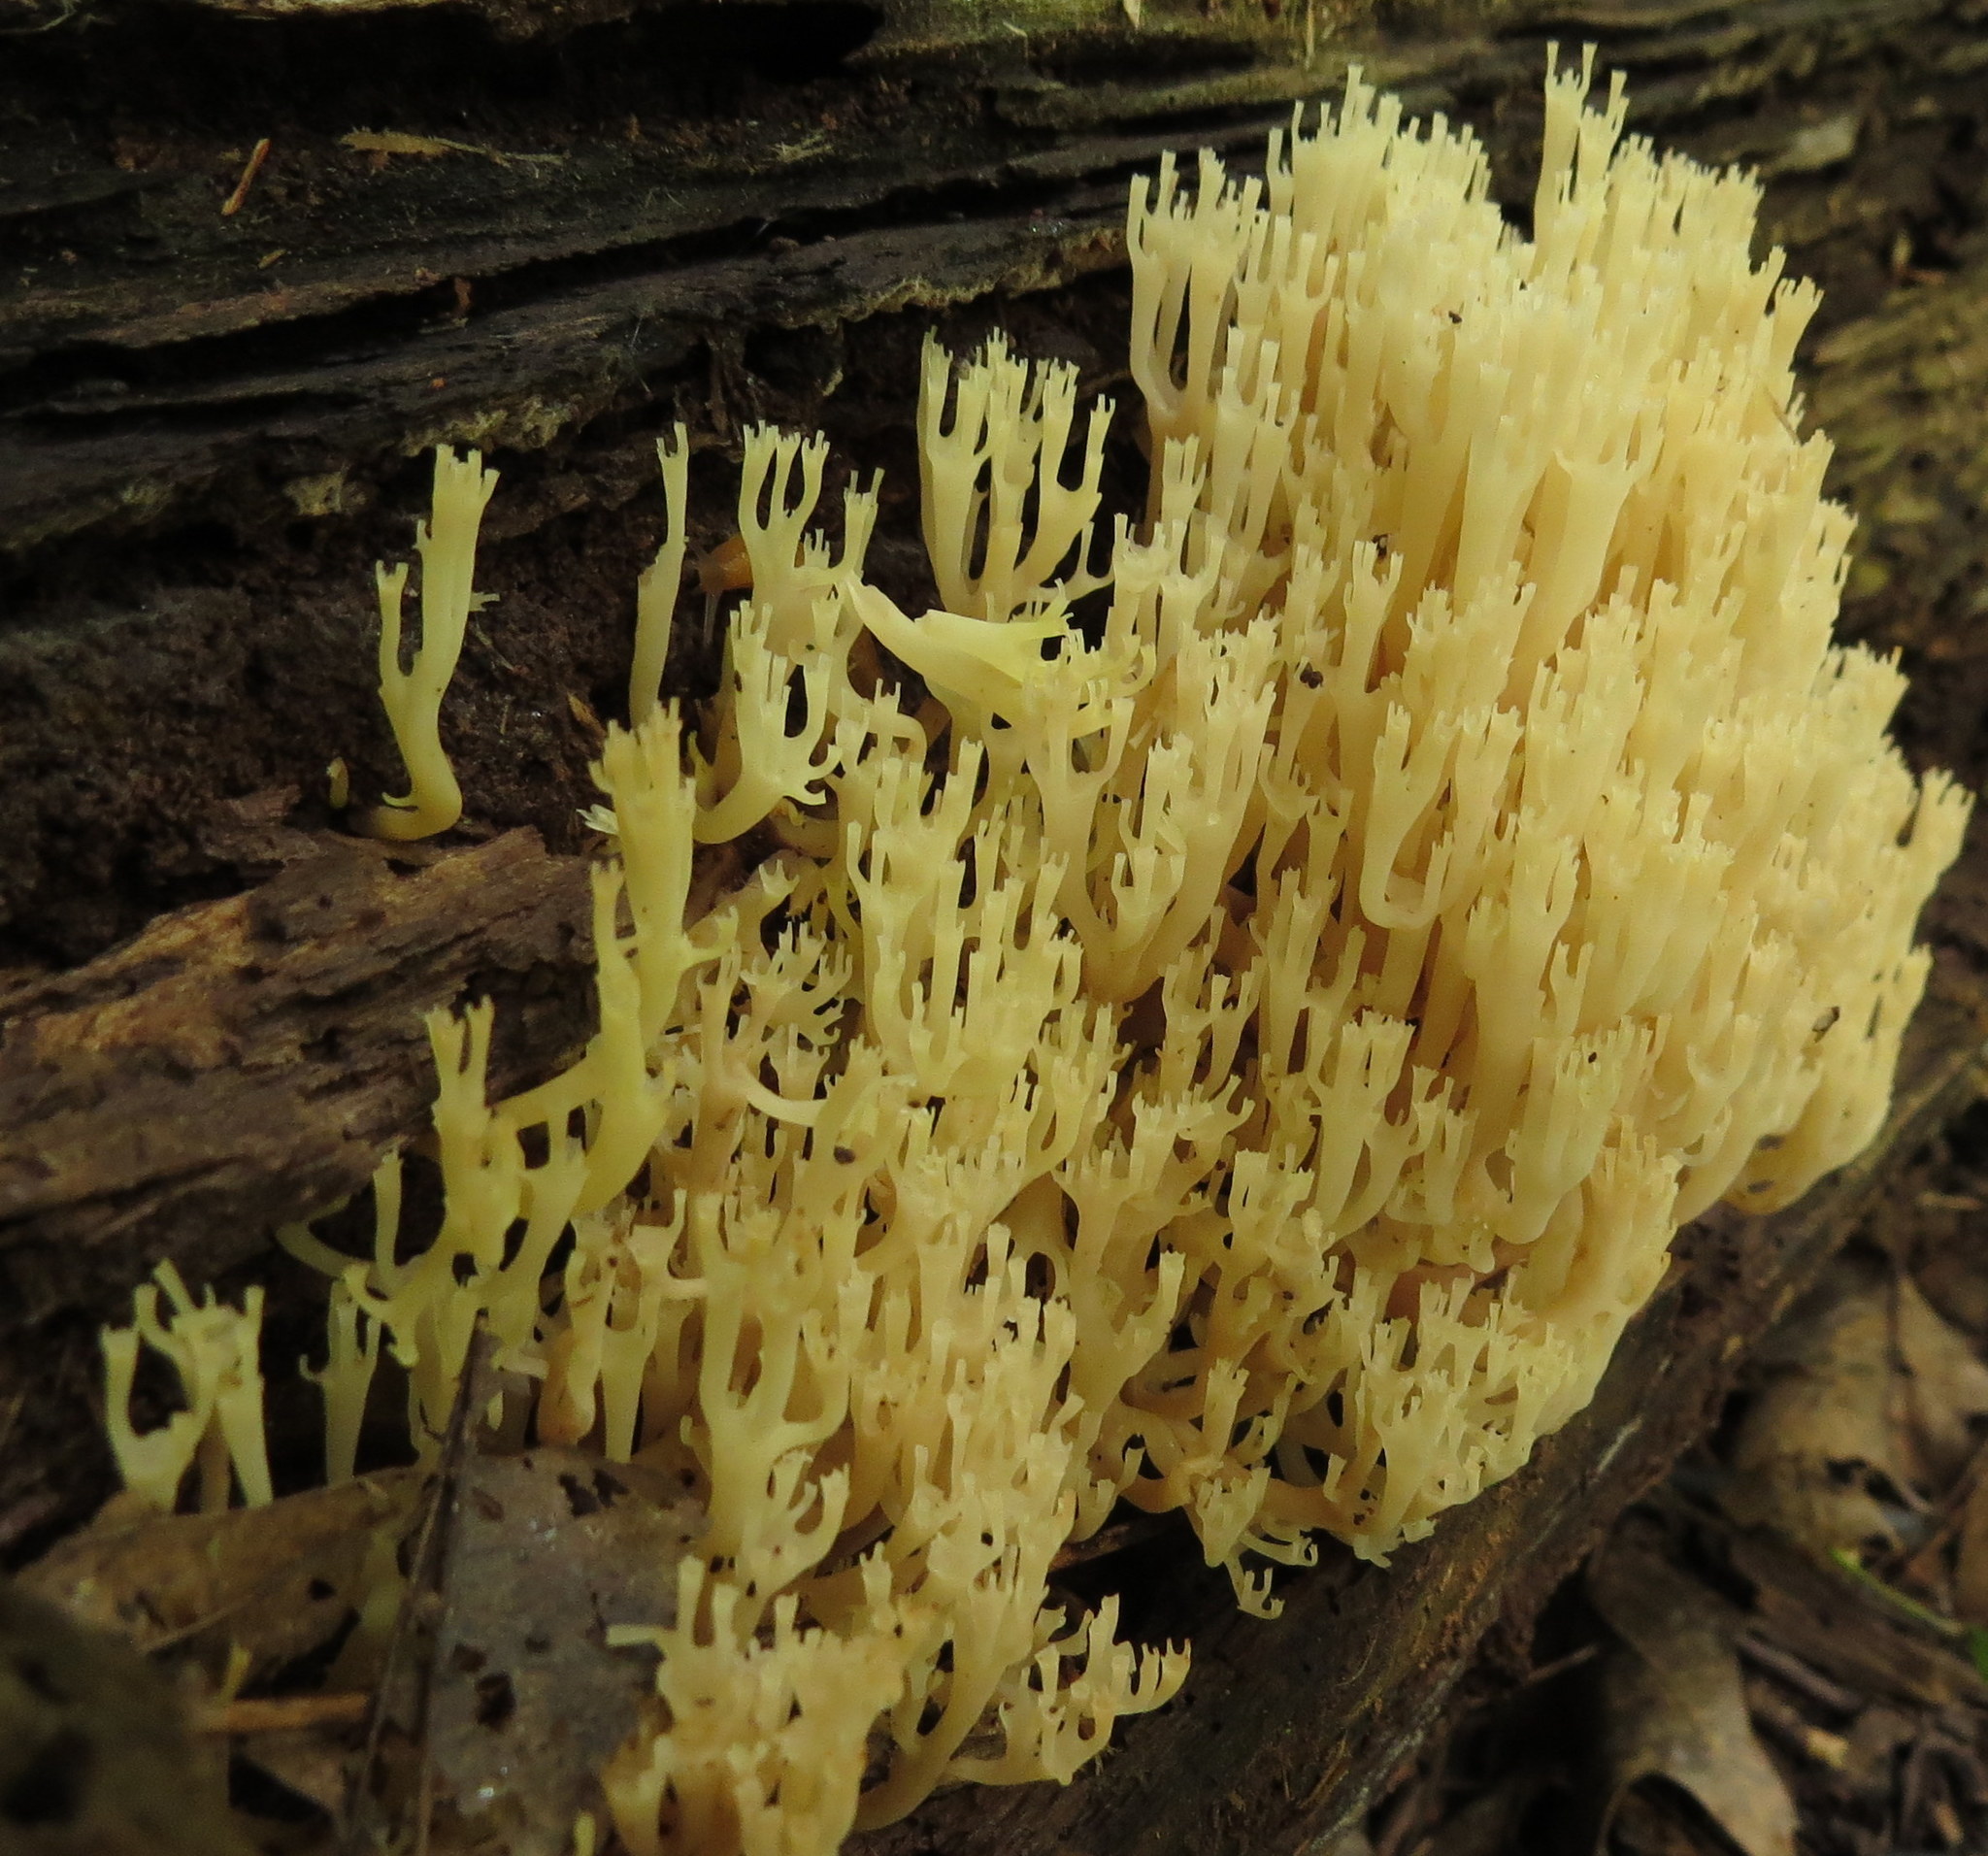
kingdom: Fungi
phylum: Basidiomycota
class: Agaricomycetes
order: Russulales
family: Auriscalpiaceae
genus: Artomyces
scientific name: Artomyces pyxidatus
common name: Crown-tipped coral fungus
